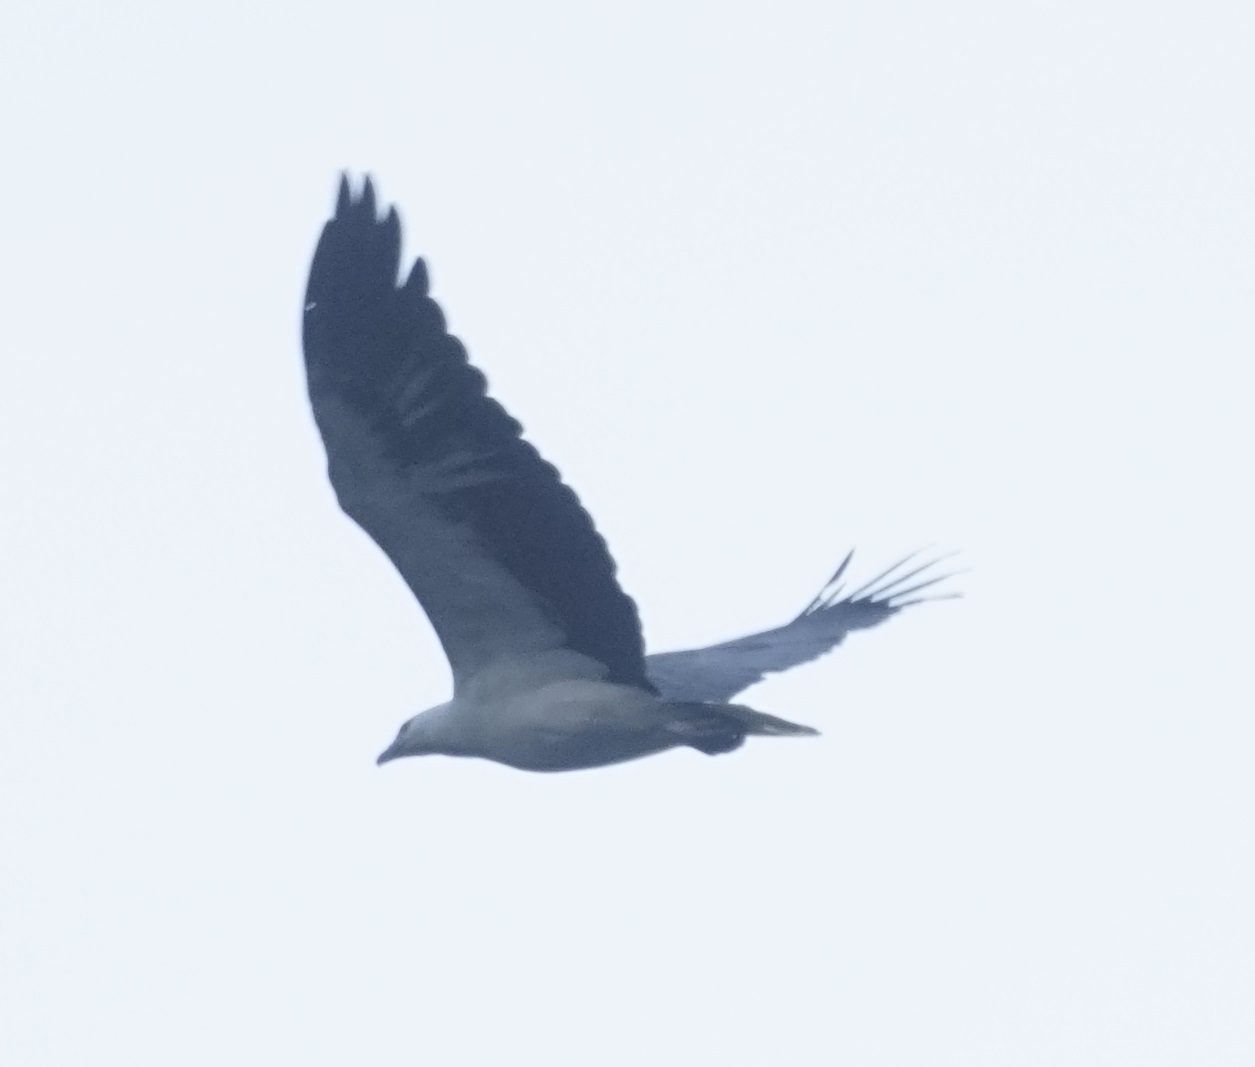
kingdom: Animalia
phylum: Chordata
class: Aves
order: Accipitriformes
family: Accipitridae
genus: Haliaeetus
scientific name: Haliaeetus leucogaster
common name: White-bellied sea eagle
